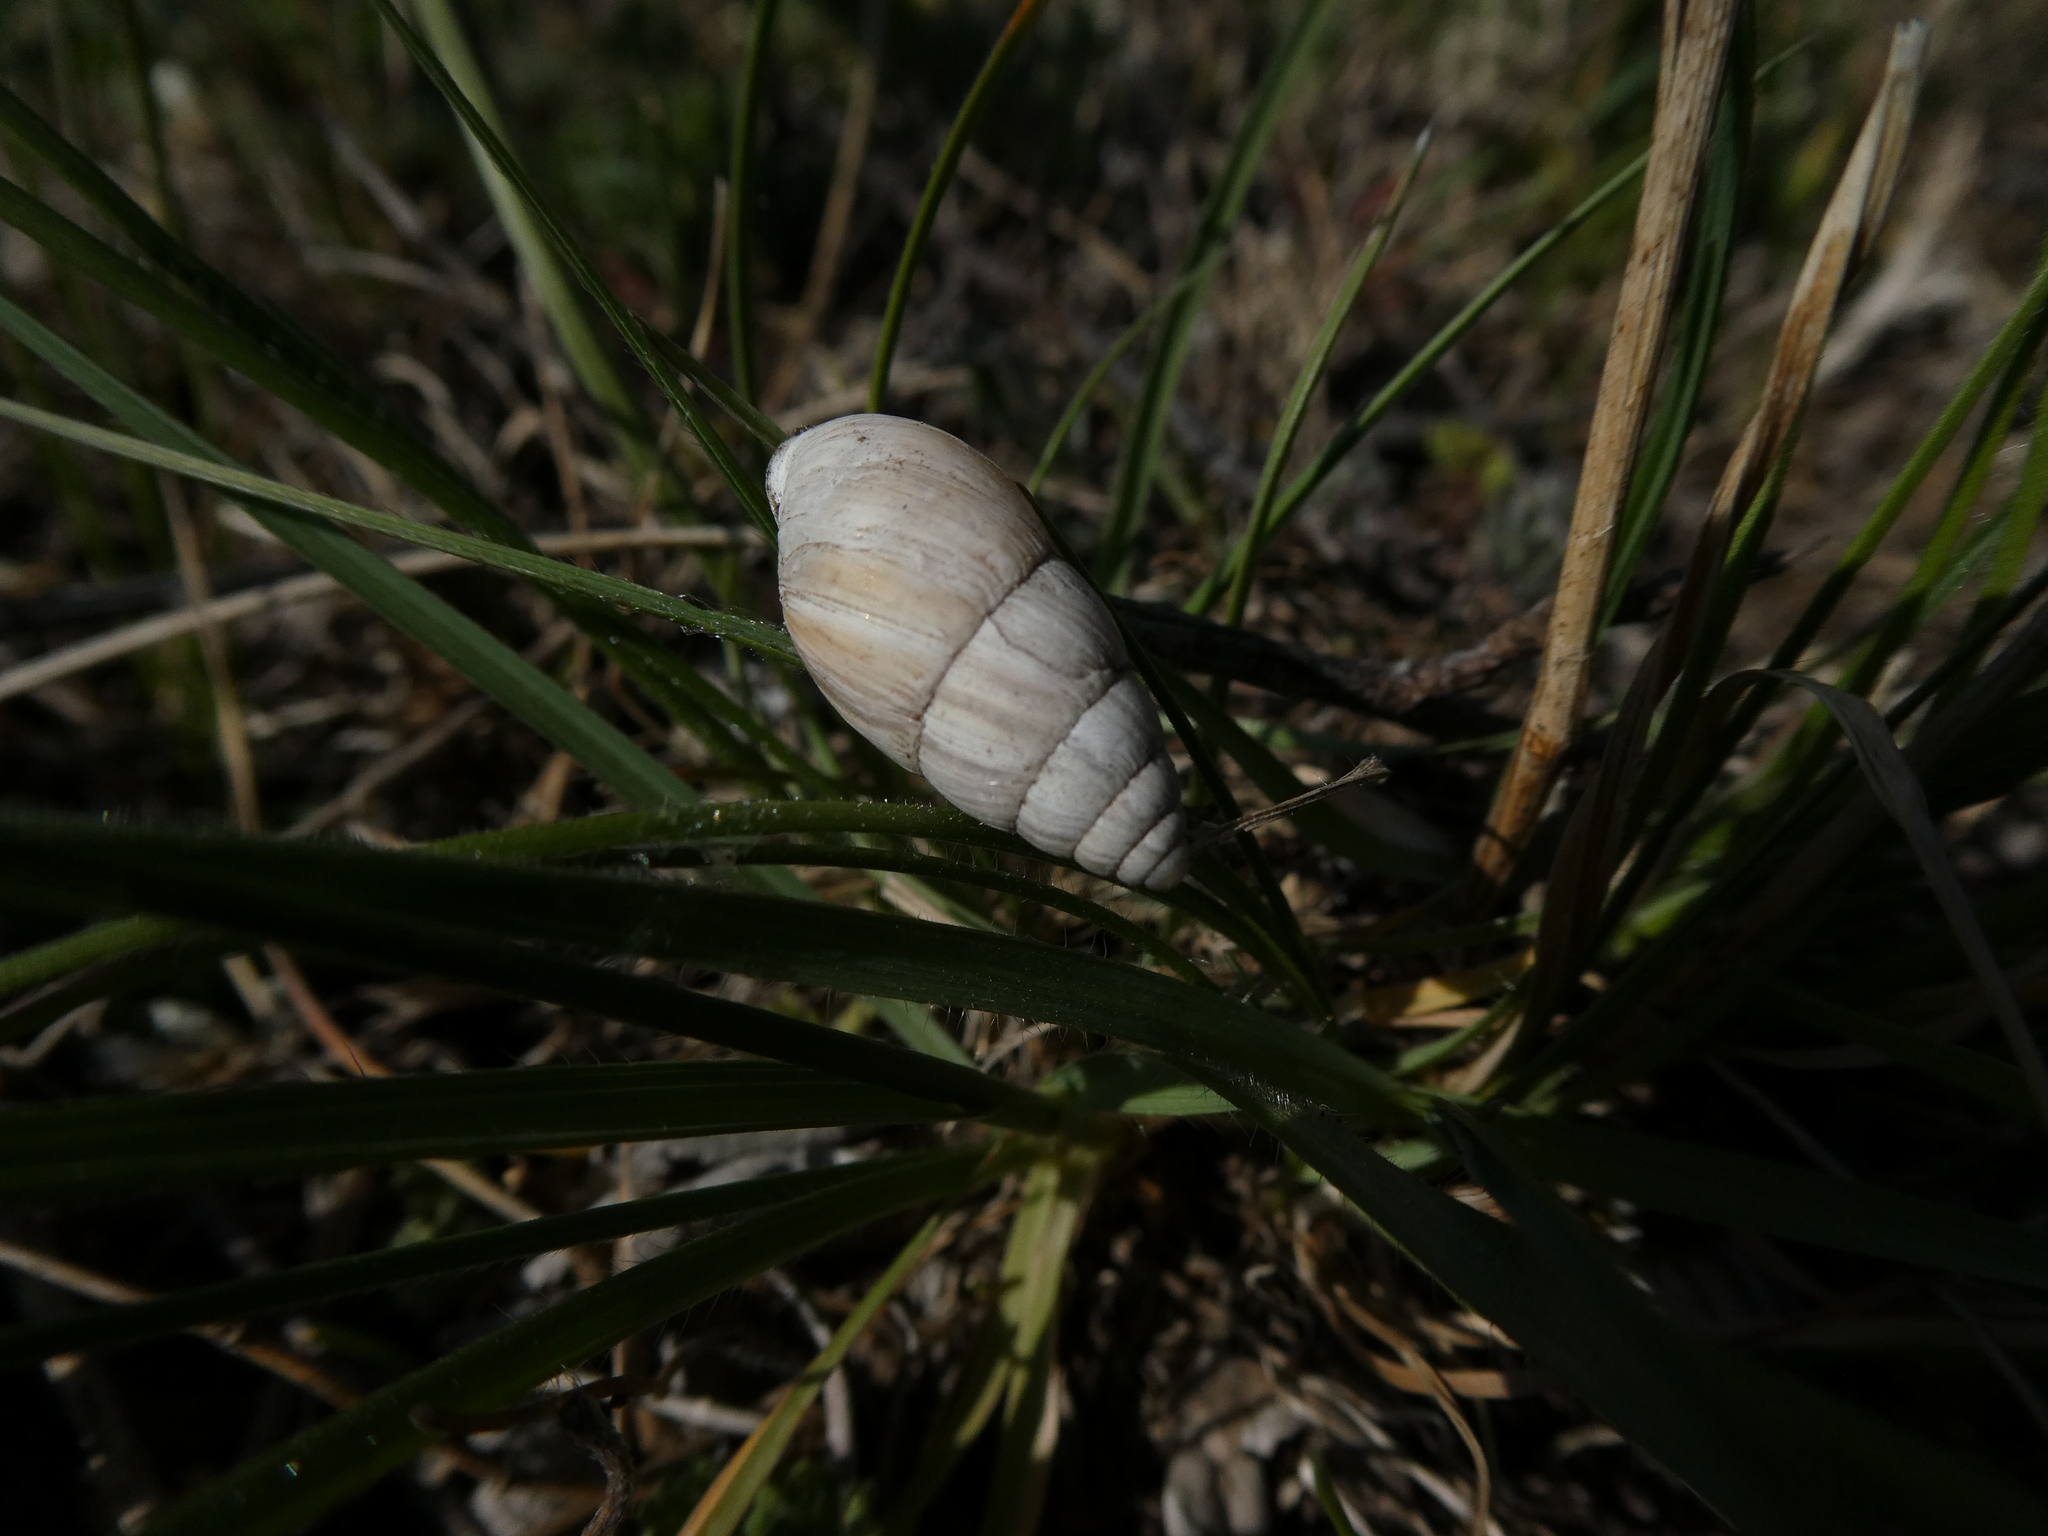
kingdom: Animalia
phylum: Mollusca
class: Gastropoda
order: Stylommatophora
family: Enidae
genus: Zebrina
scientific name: Zebrina detrita
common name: Large bulin
